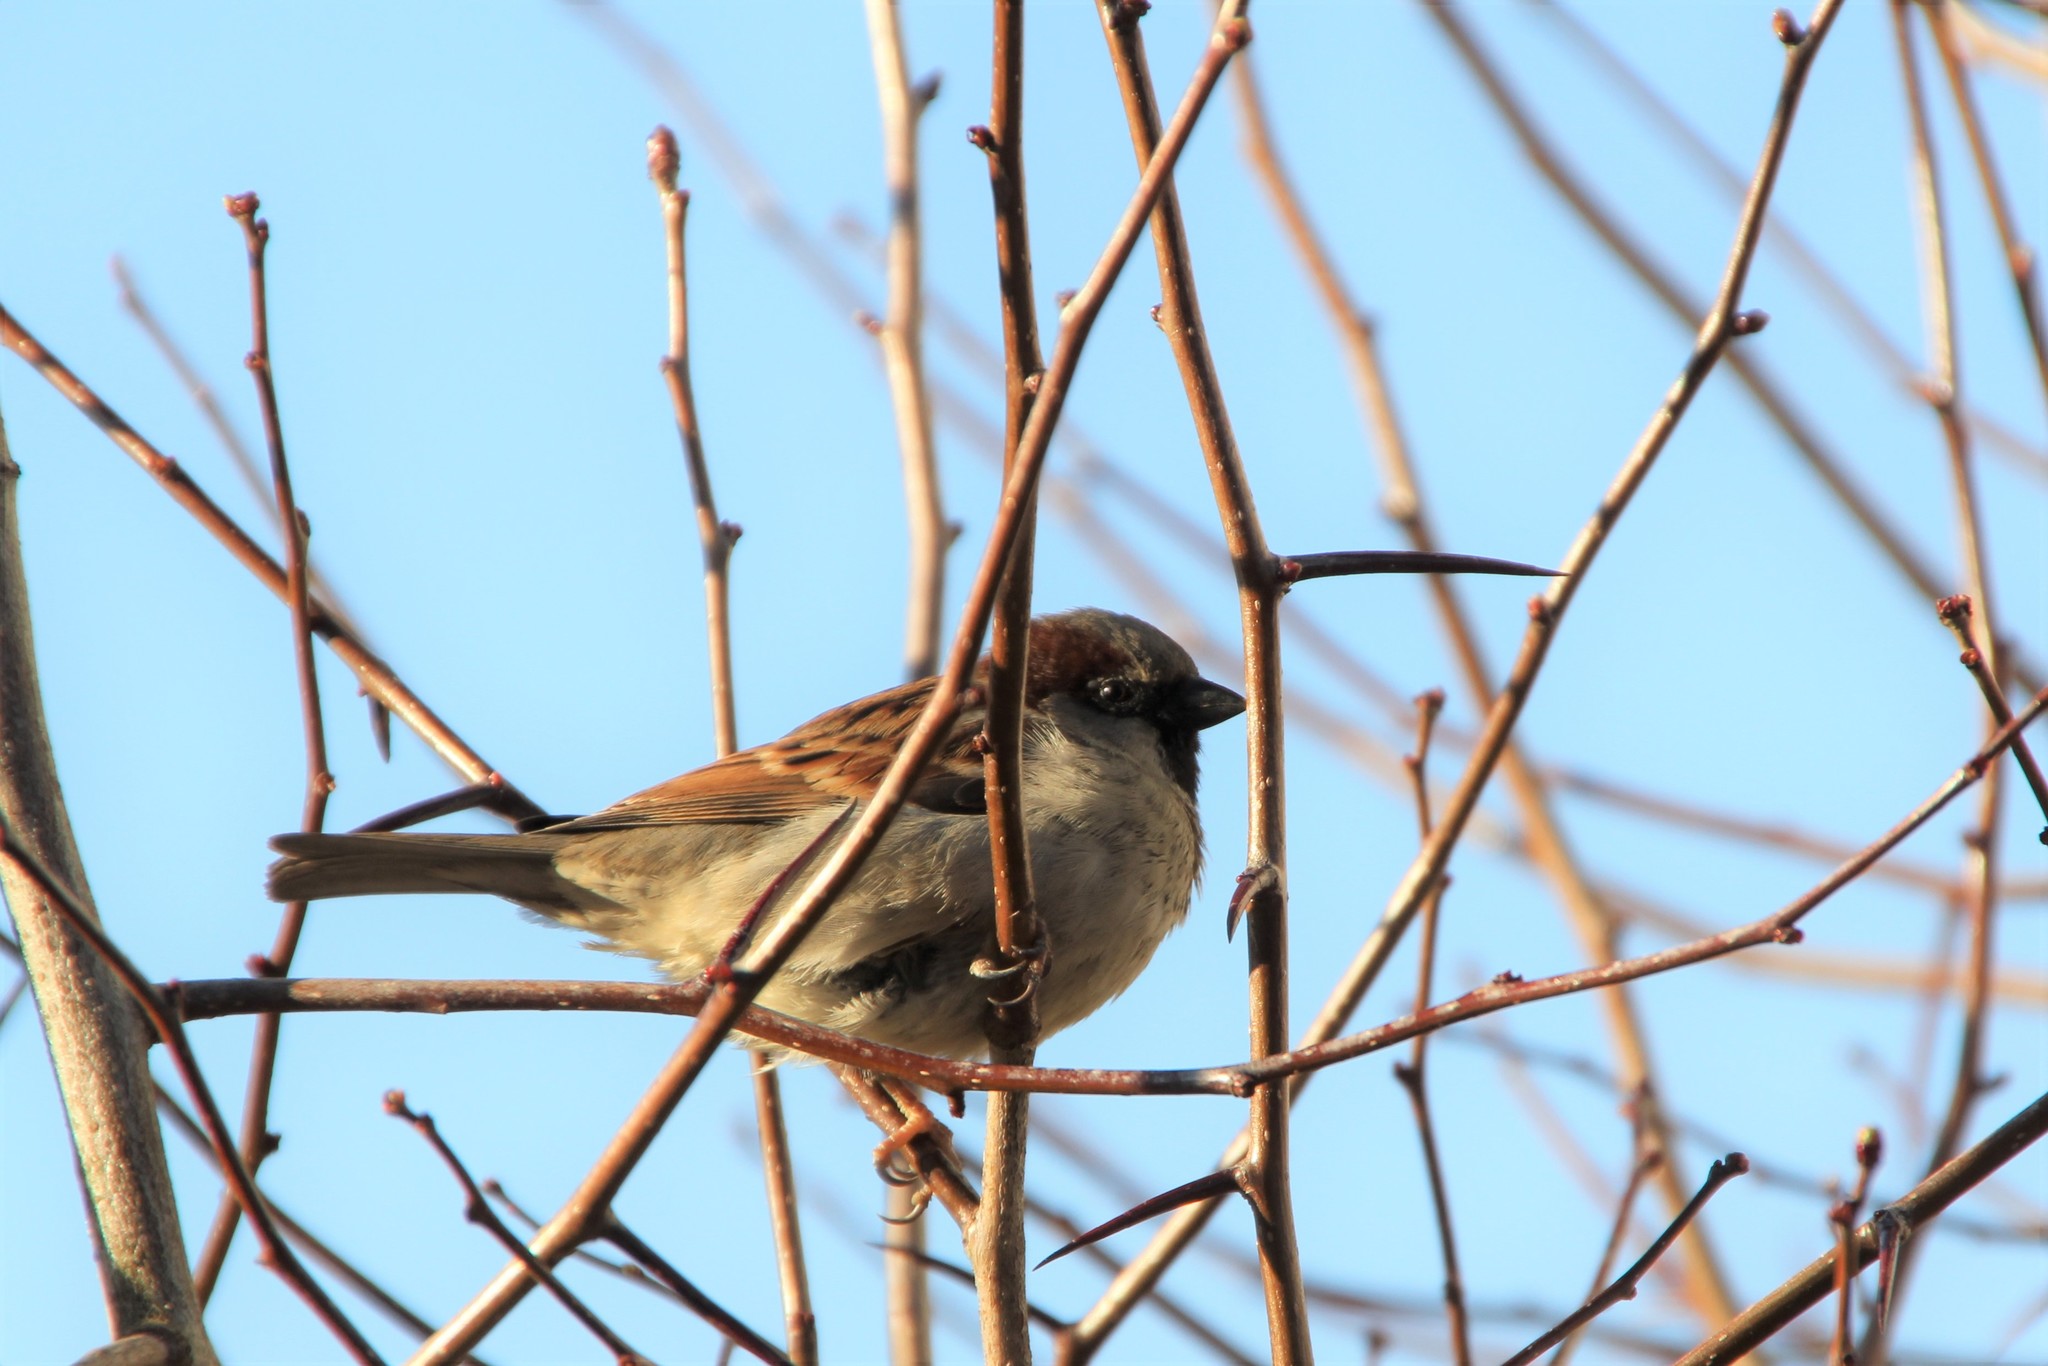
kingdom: Animalia
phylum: Chordata
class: Aves
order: Passeriformes
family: Passeridae
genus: Passer
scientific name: Passer domesticus
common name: House sparrow
